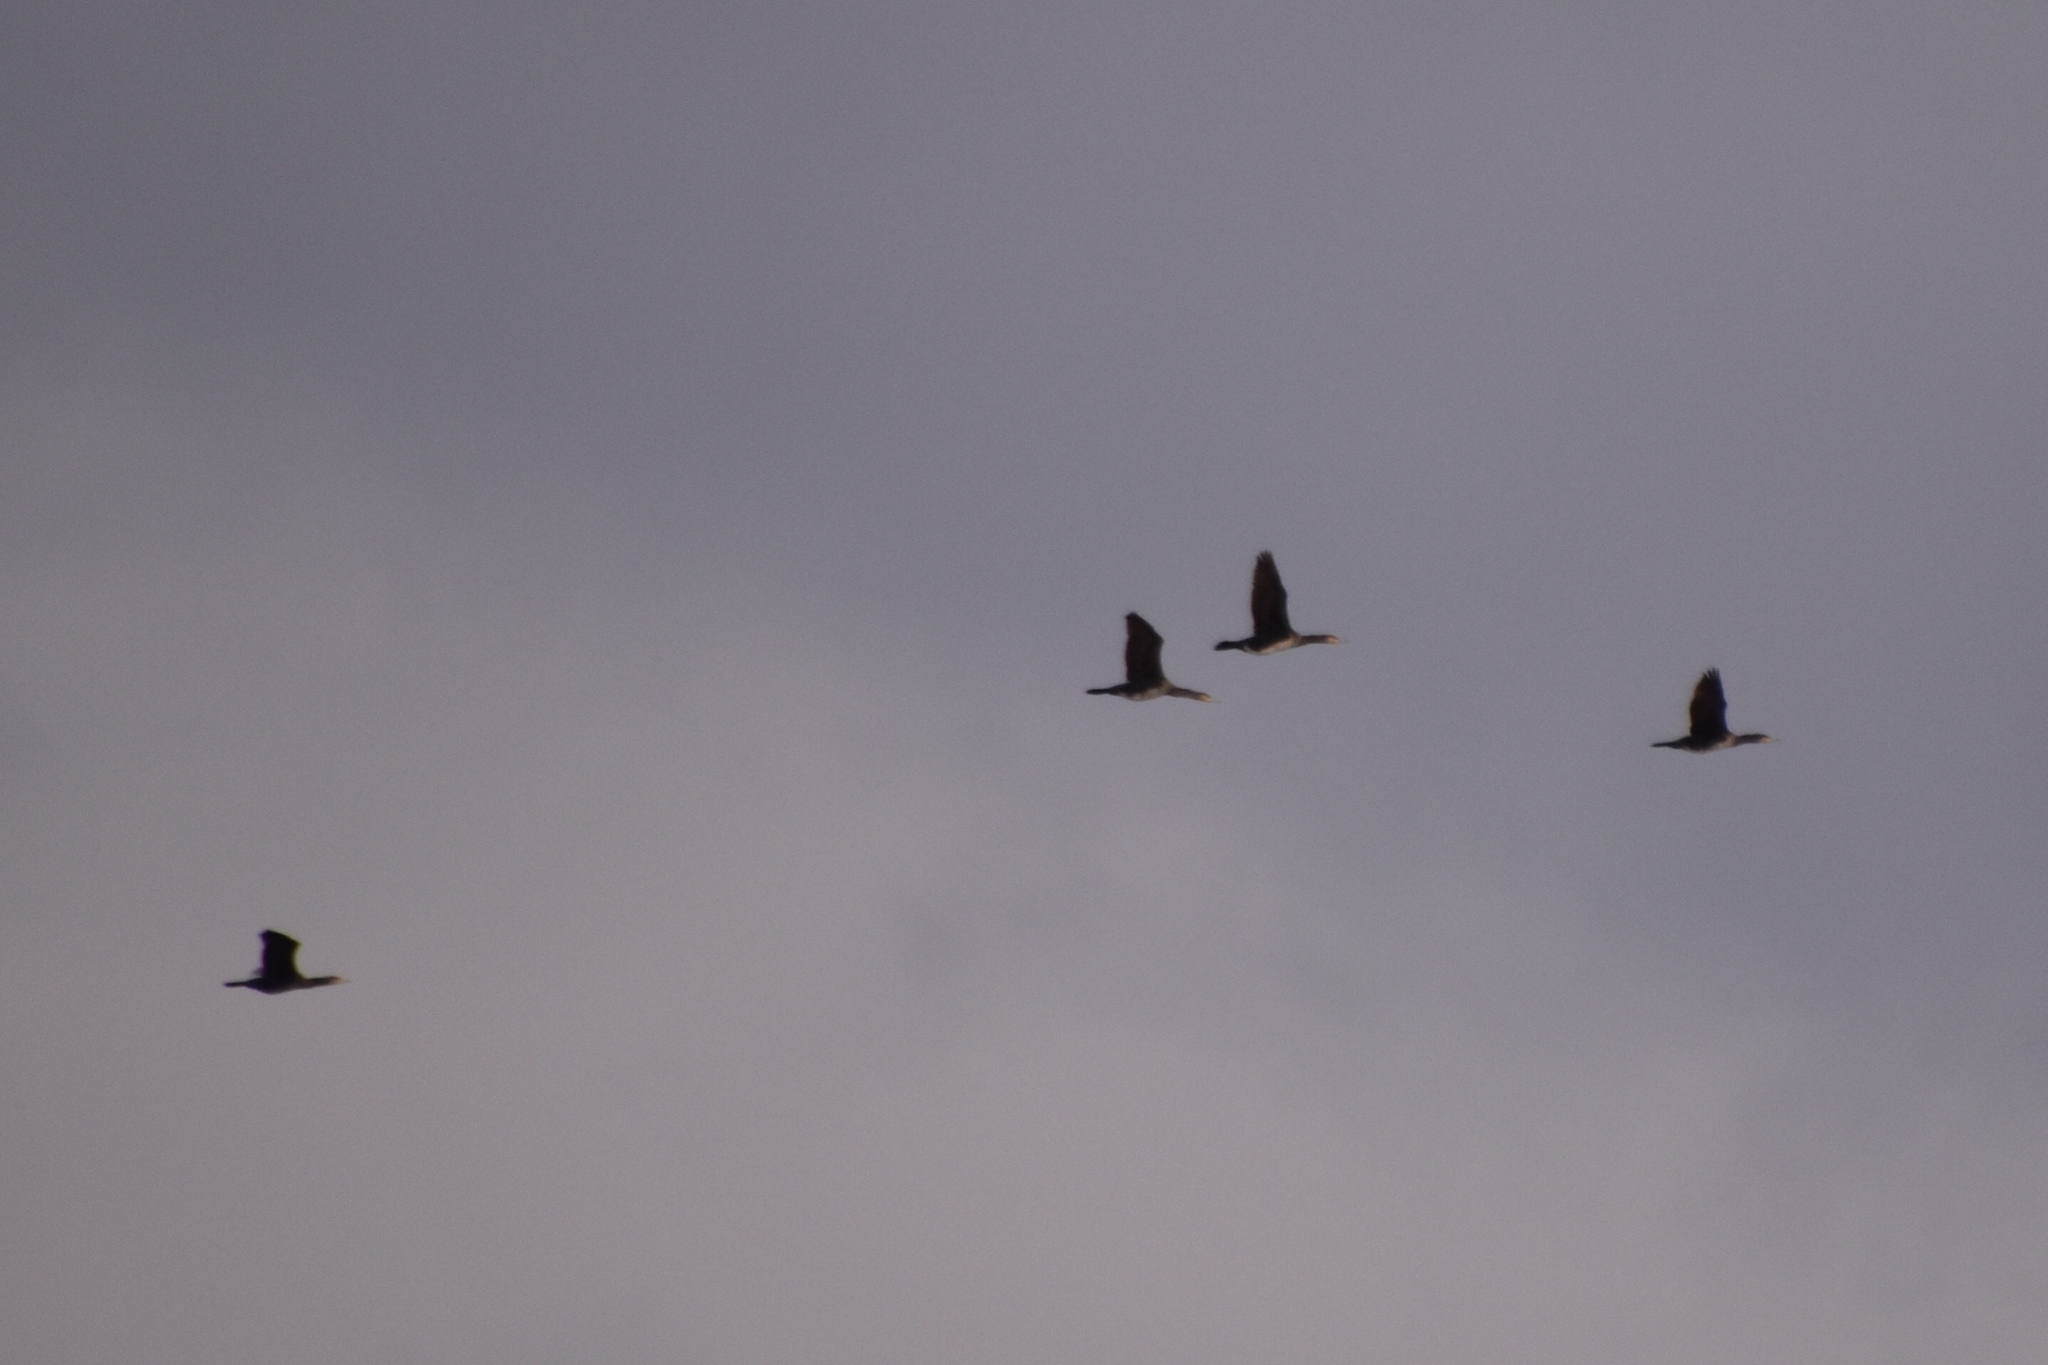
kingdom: Animalia
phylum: Chordata
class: Aves
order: Suliformes
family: Phalacrocoracidae
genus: Phalacrocorax
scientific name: Phalacrocorax carbo
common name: Great cormorant
